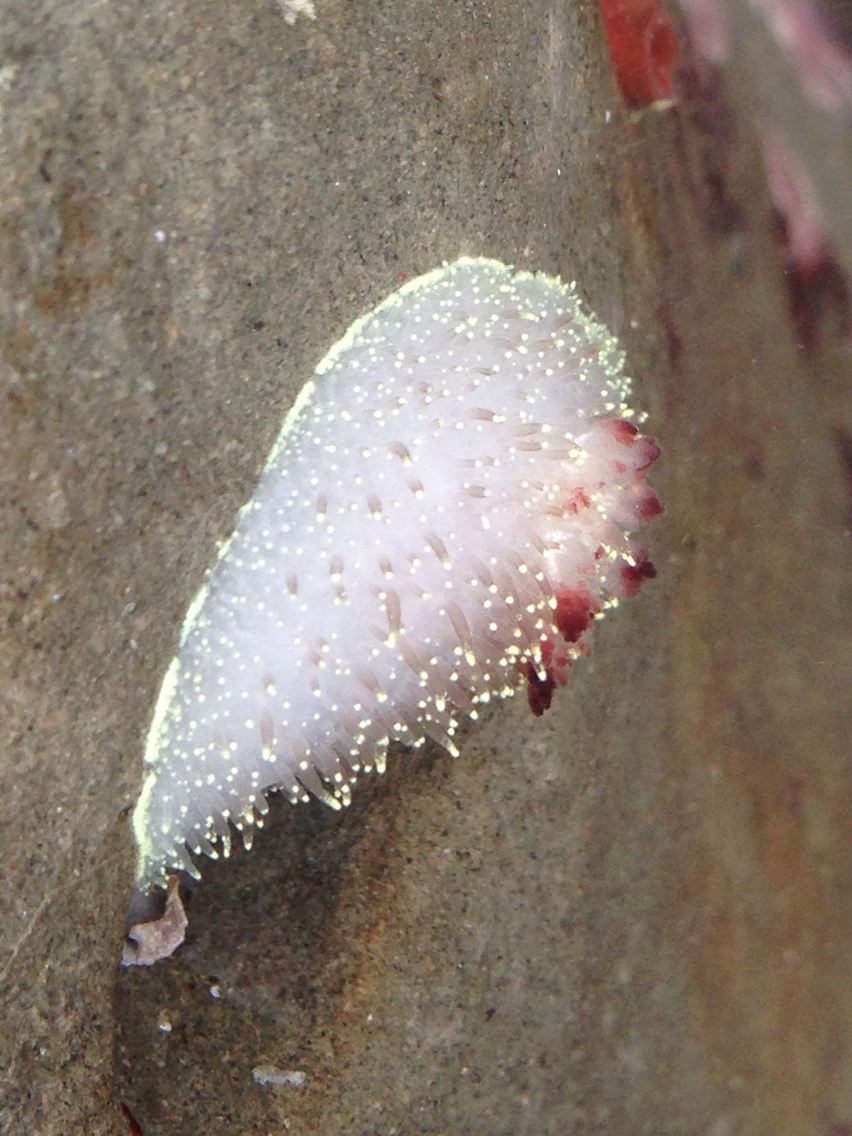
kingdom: Animalia
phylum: Mollusca
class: Gastropoda
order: Nudibranchia
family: Onchidorididae
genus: Acanthodoris
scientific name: Acanthodoris nanaimoensis
